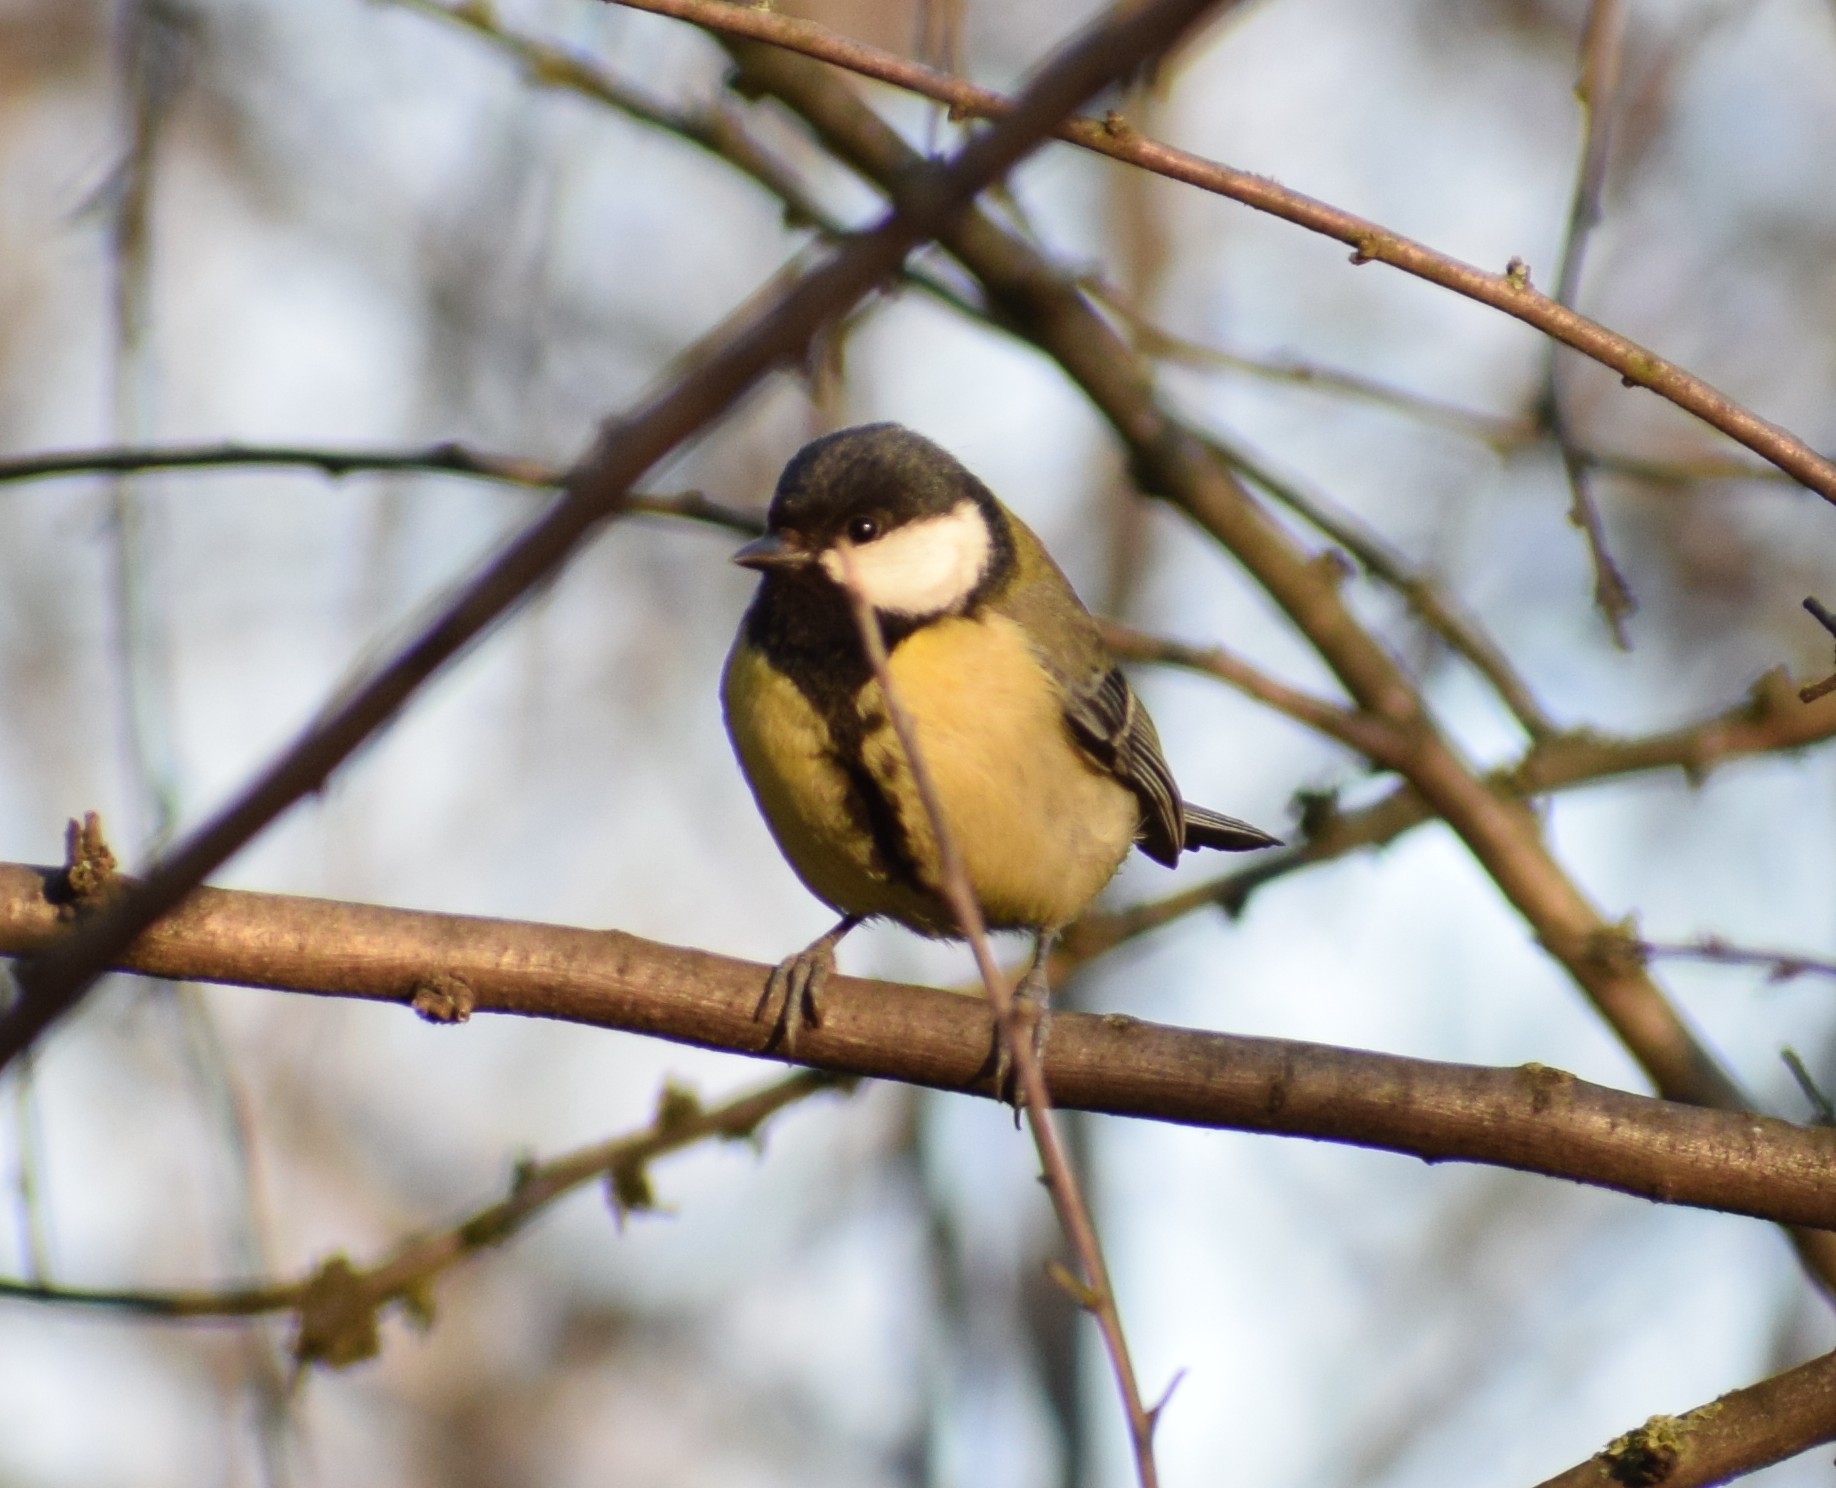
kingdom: Animalia
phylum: Chordata
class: Aves
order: Passeriformes
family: Paridae
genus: Parus
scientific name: Parus major
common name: Great tit
